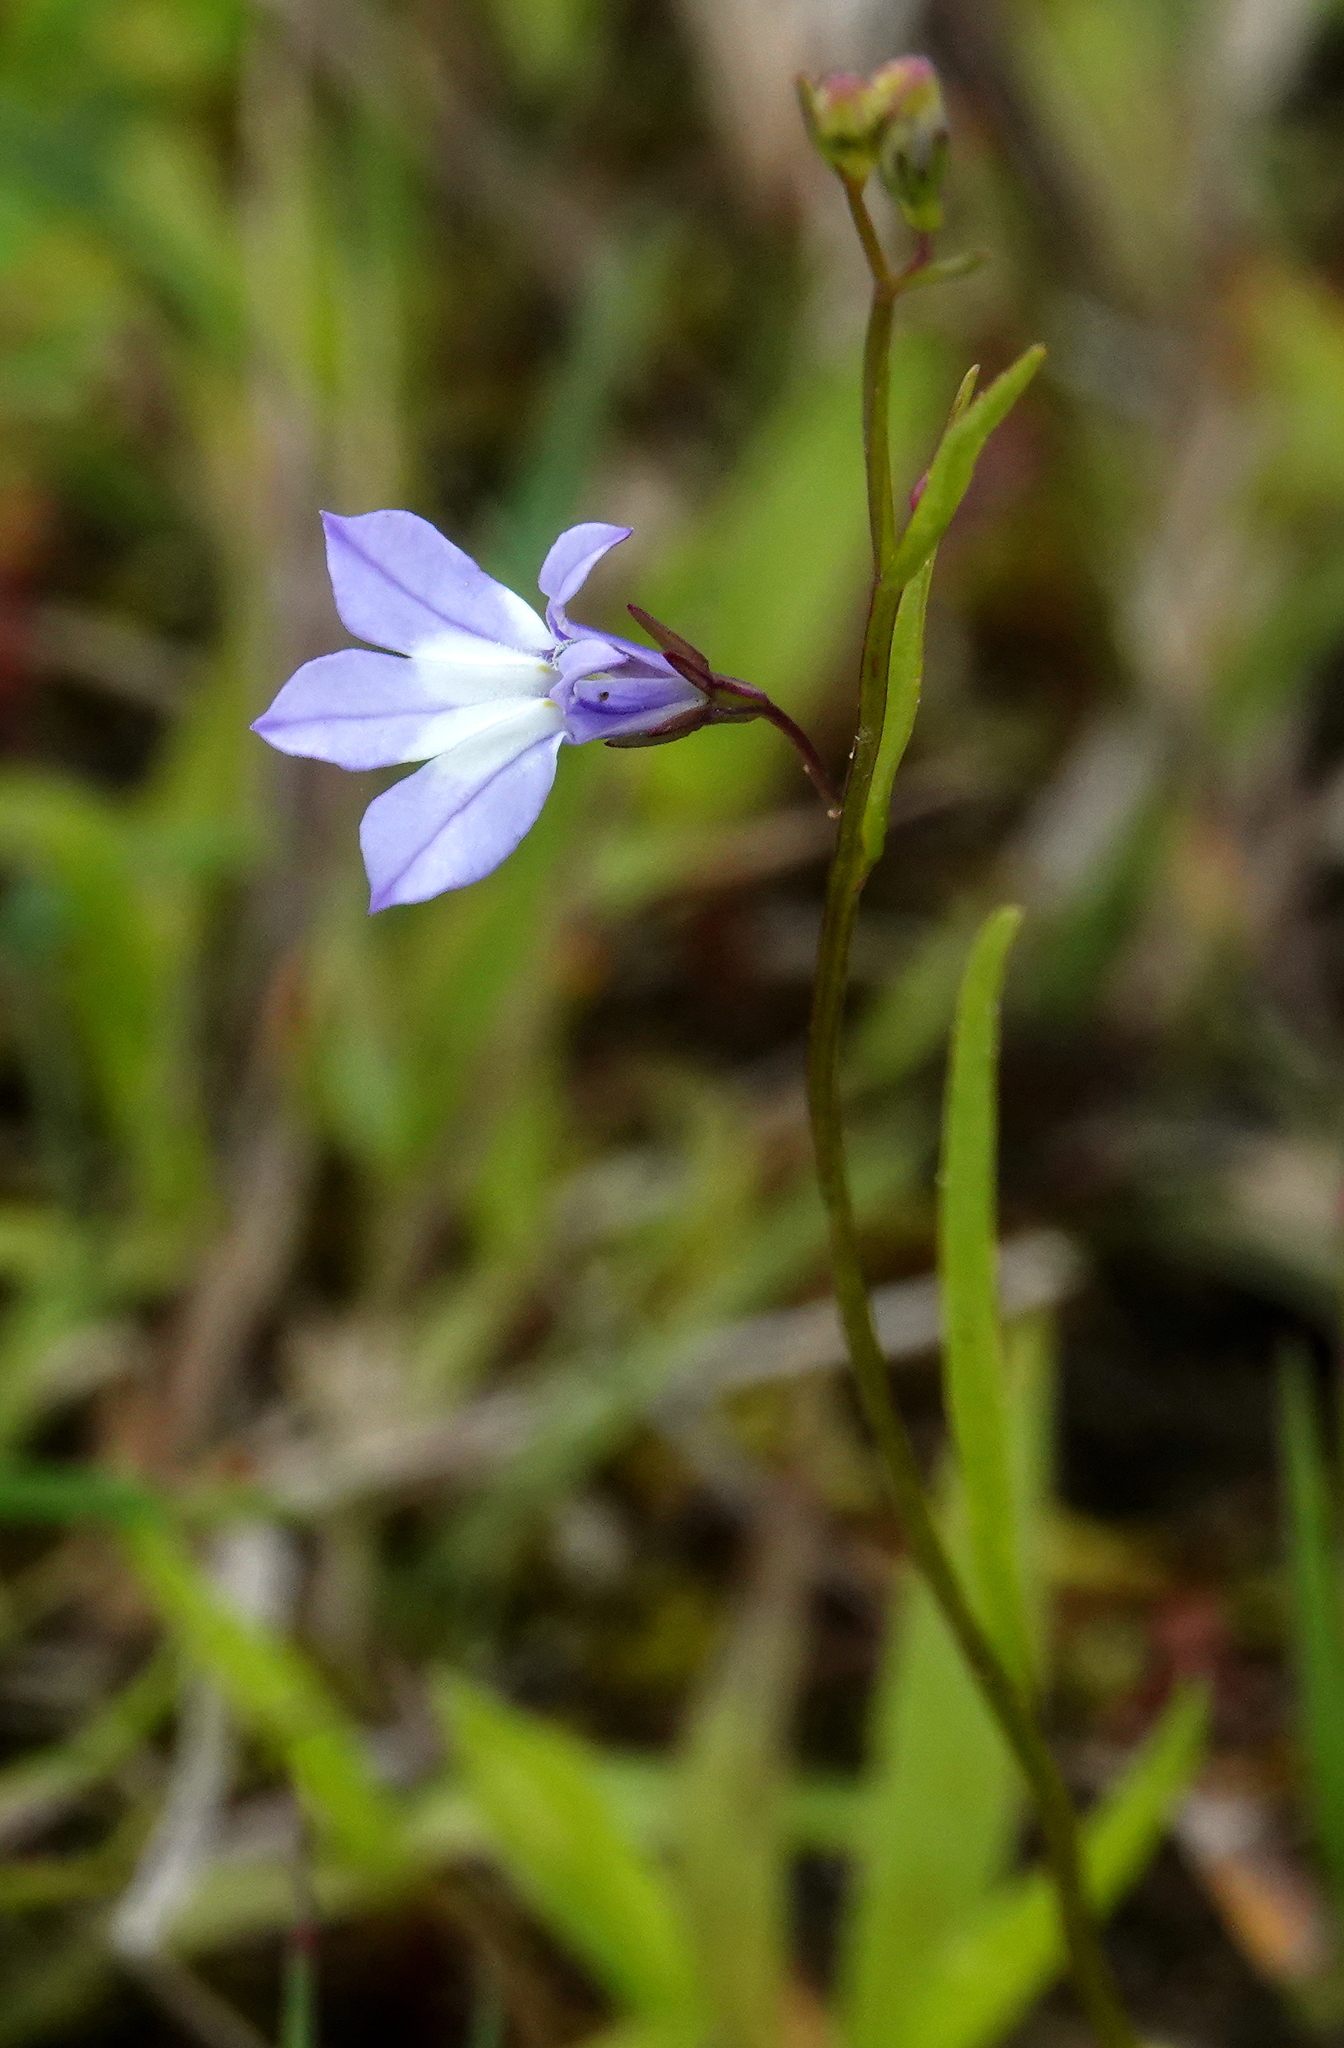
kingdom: Plantae
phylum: Tracheophyta
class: Magnoliopsida
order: Asterales
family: Campanulaceae
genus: Lobelia
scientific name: Lobelia kalmii
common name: Kalm's lobelia
